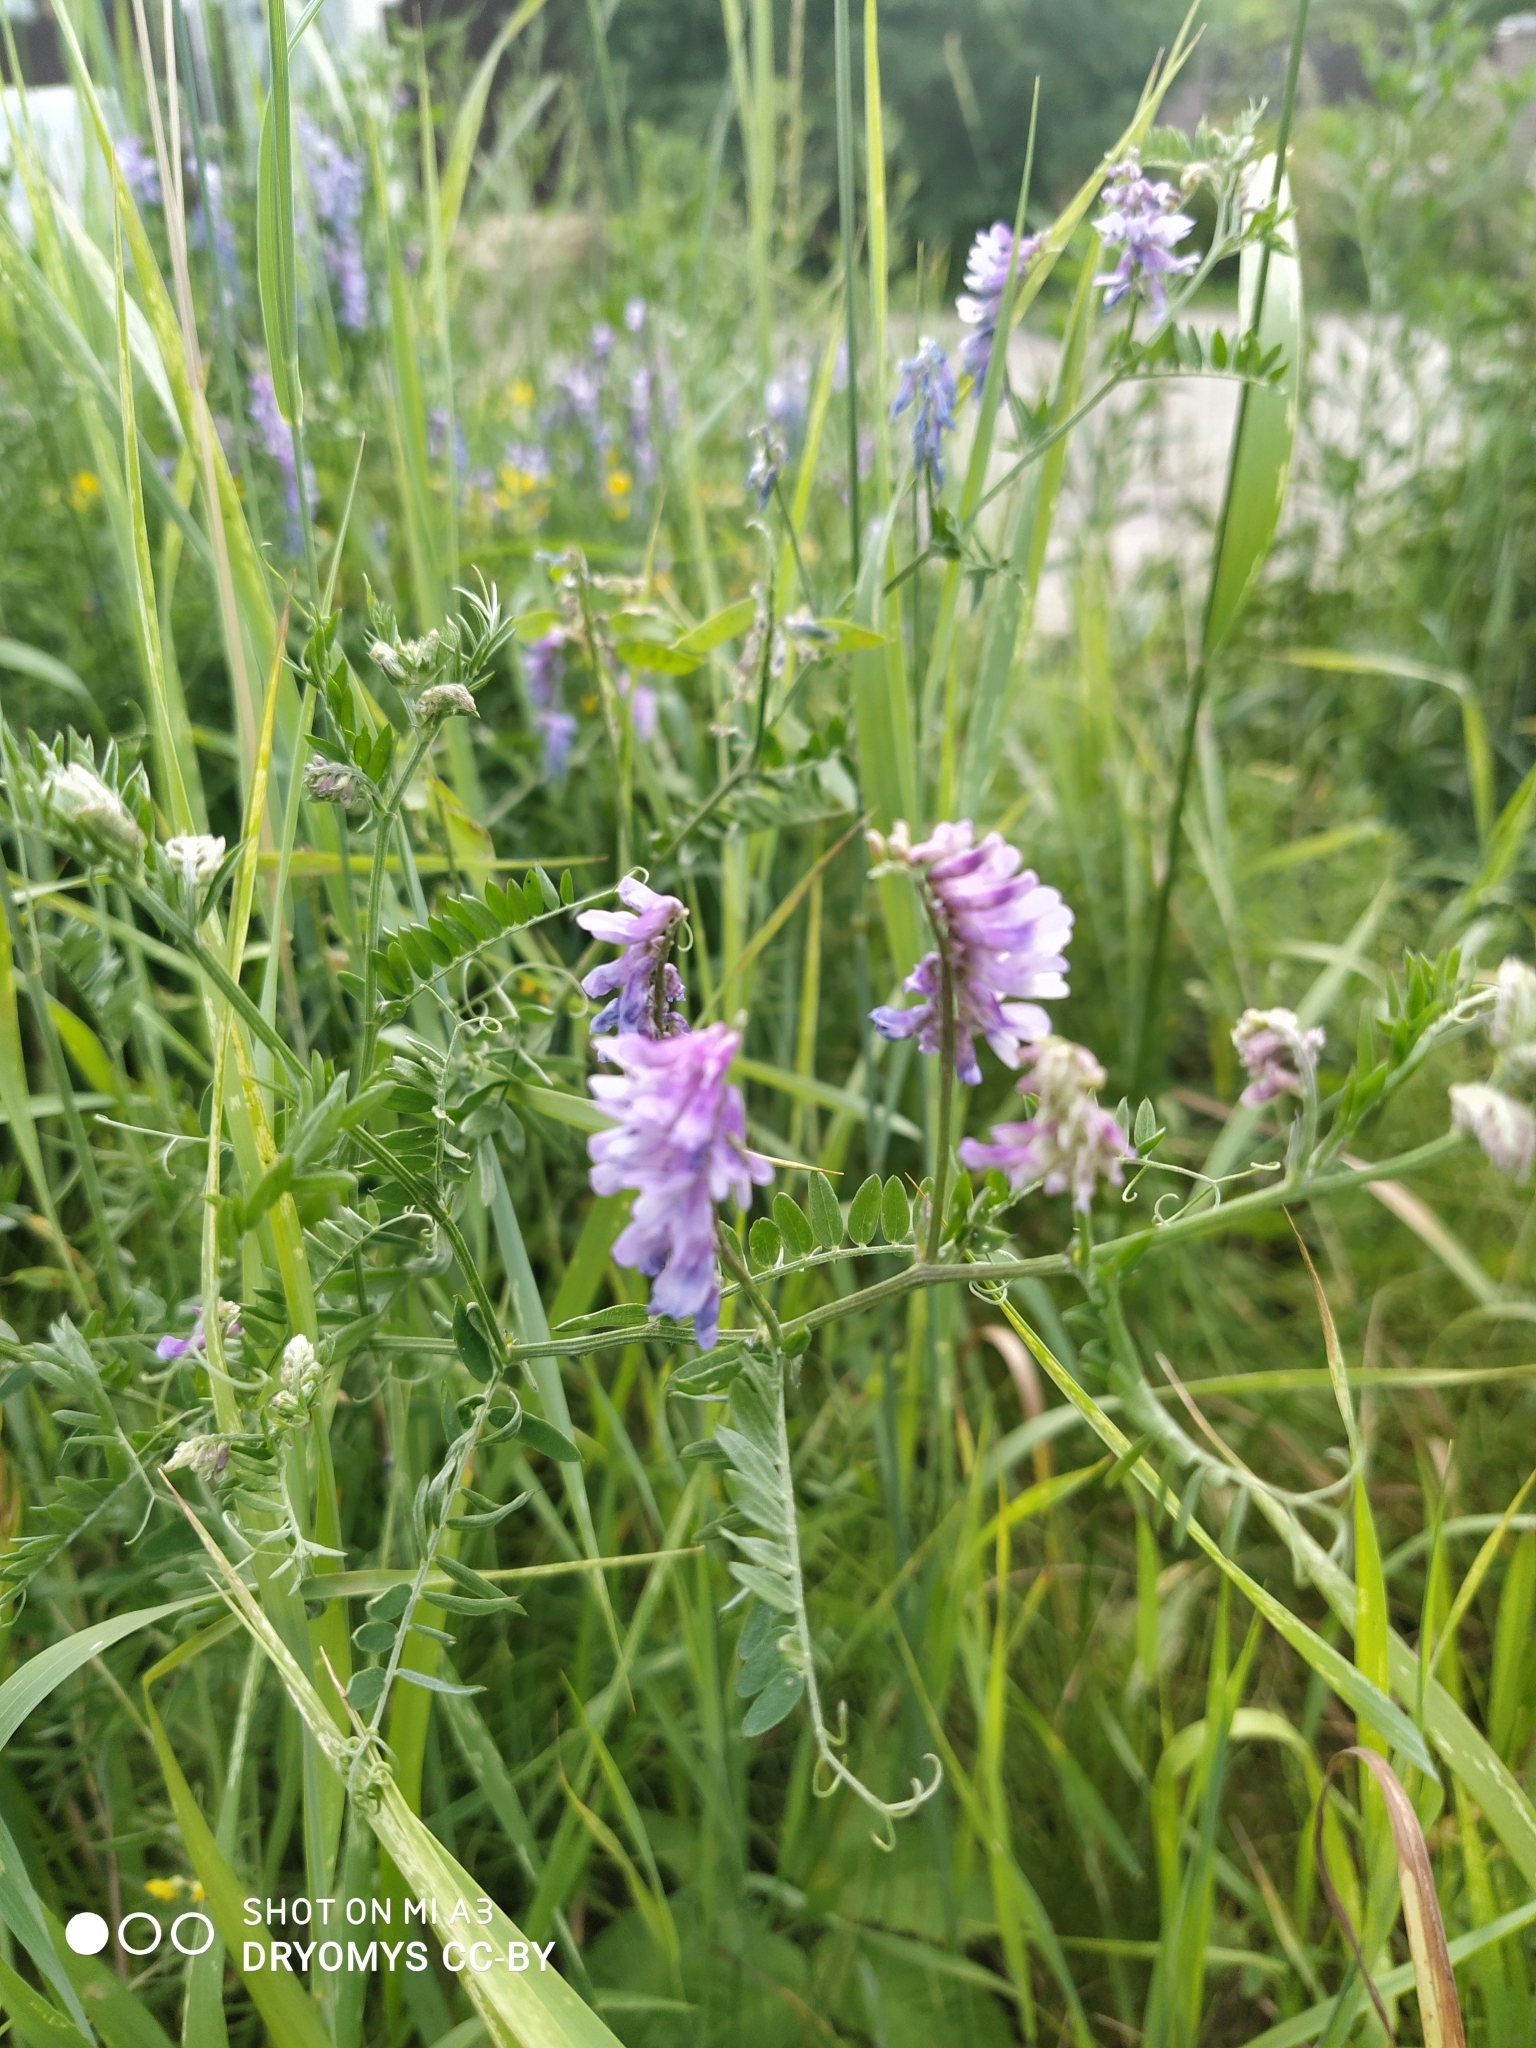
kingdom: Plantae
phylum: Tracheophyta
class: Magnoliopsida
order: Fabales
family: Fabaceae
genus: Vicia
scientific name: Vicia cracca
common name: Bird vetch
